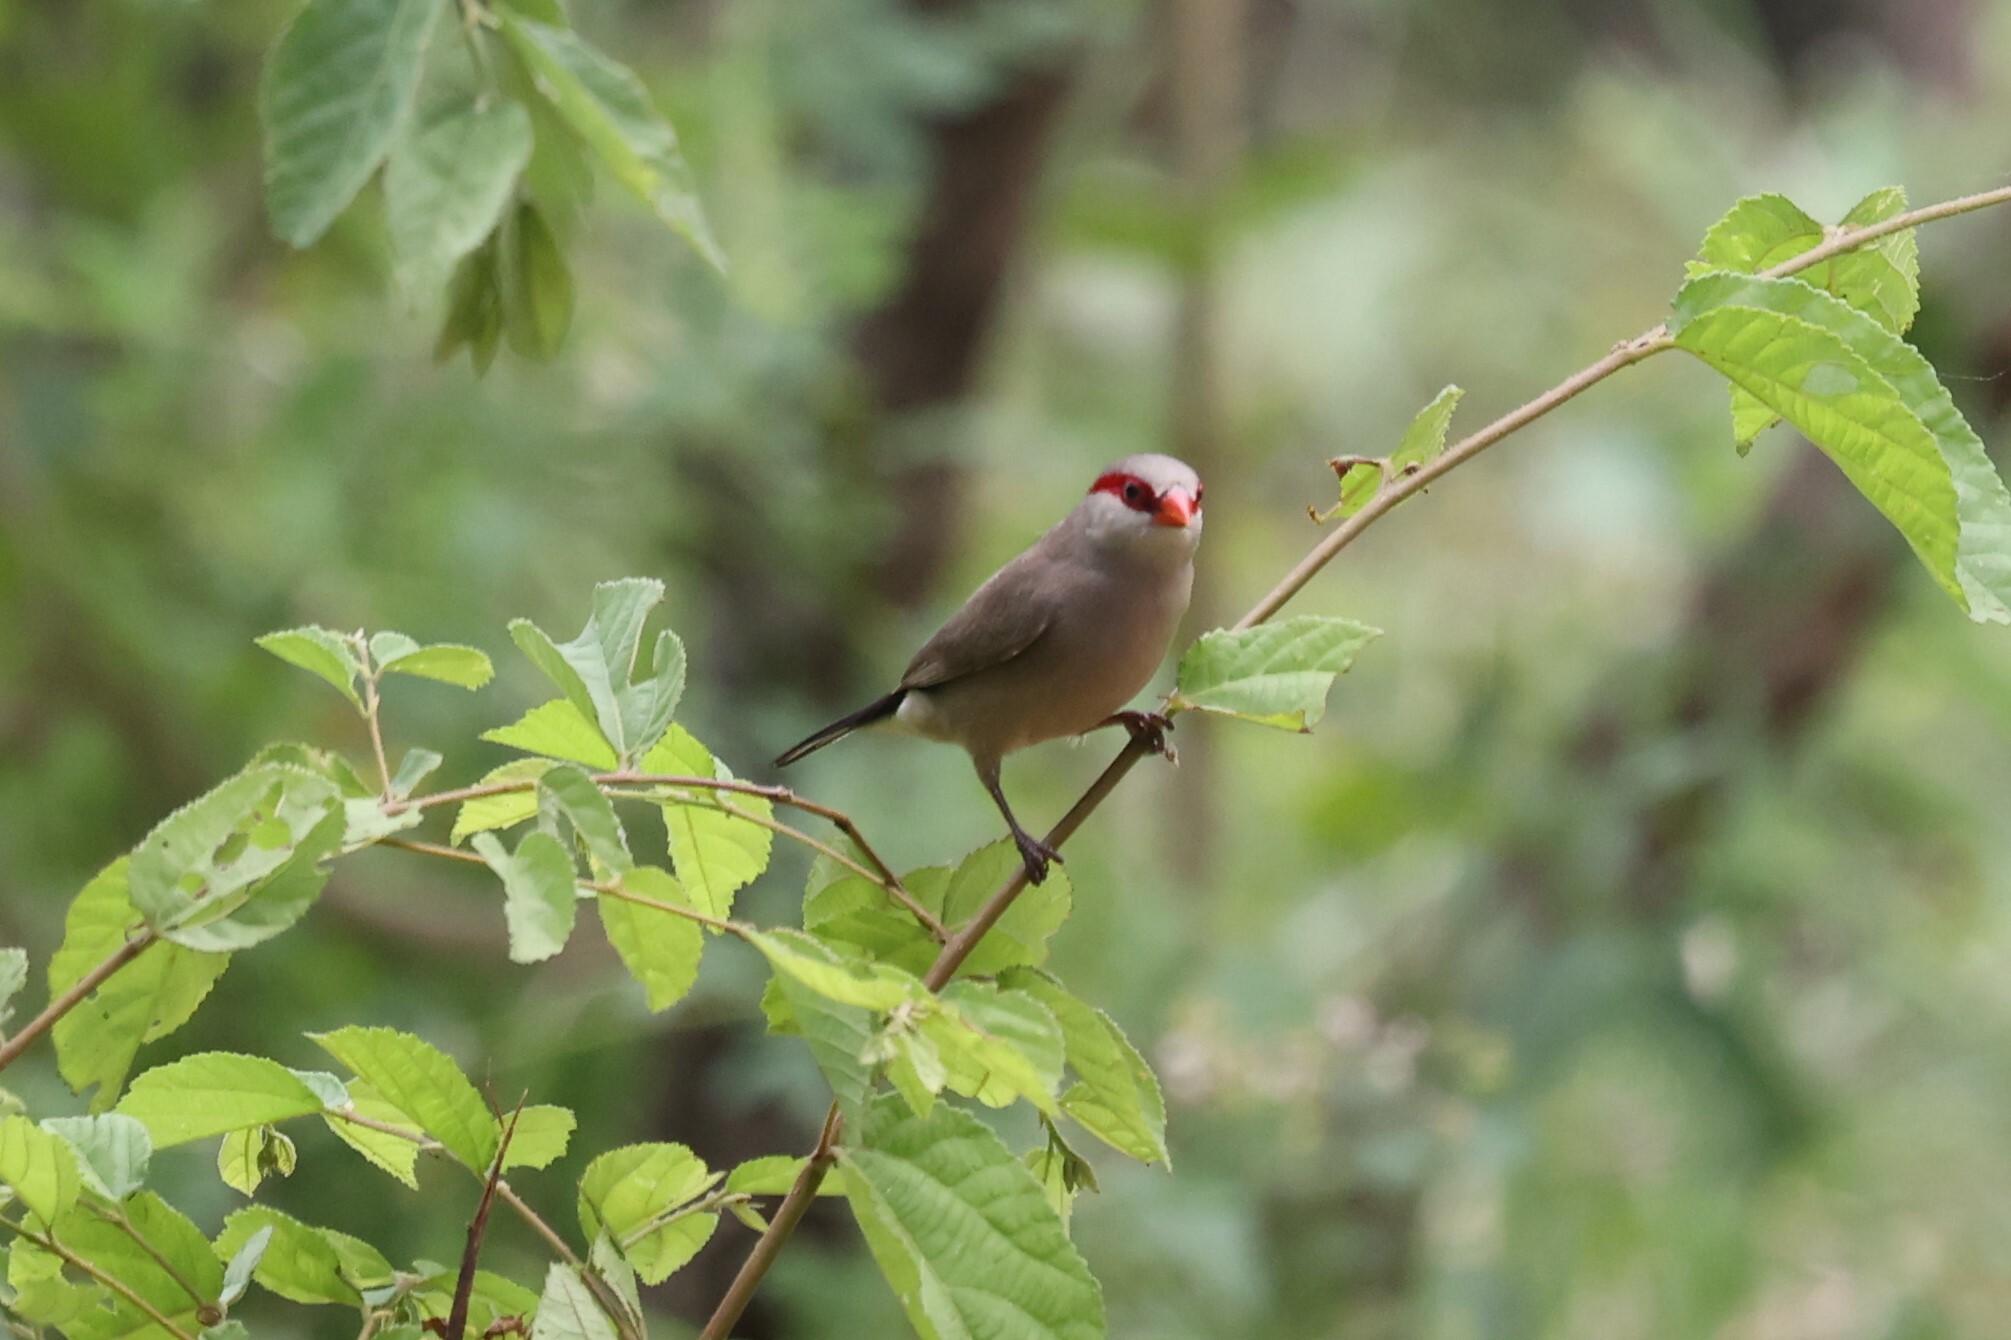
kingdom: Animalia
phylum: Chordata
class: Aves
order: Passeriformes
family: Estrildidae
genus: Estrilda
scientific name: Estrilda troglodytes
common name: Black-rumped waxbill
